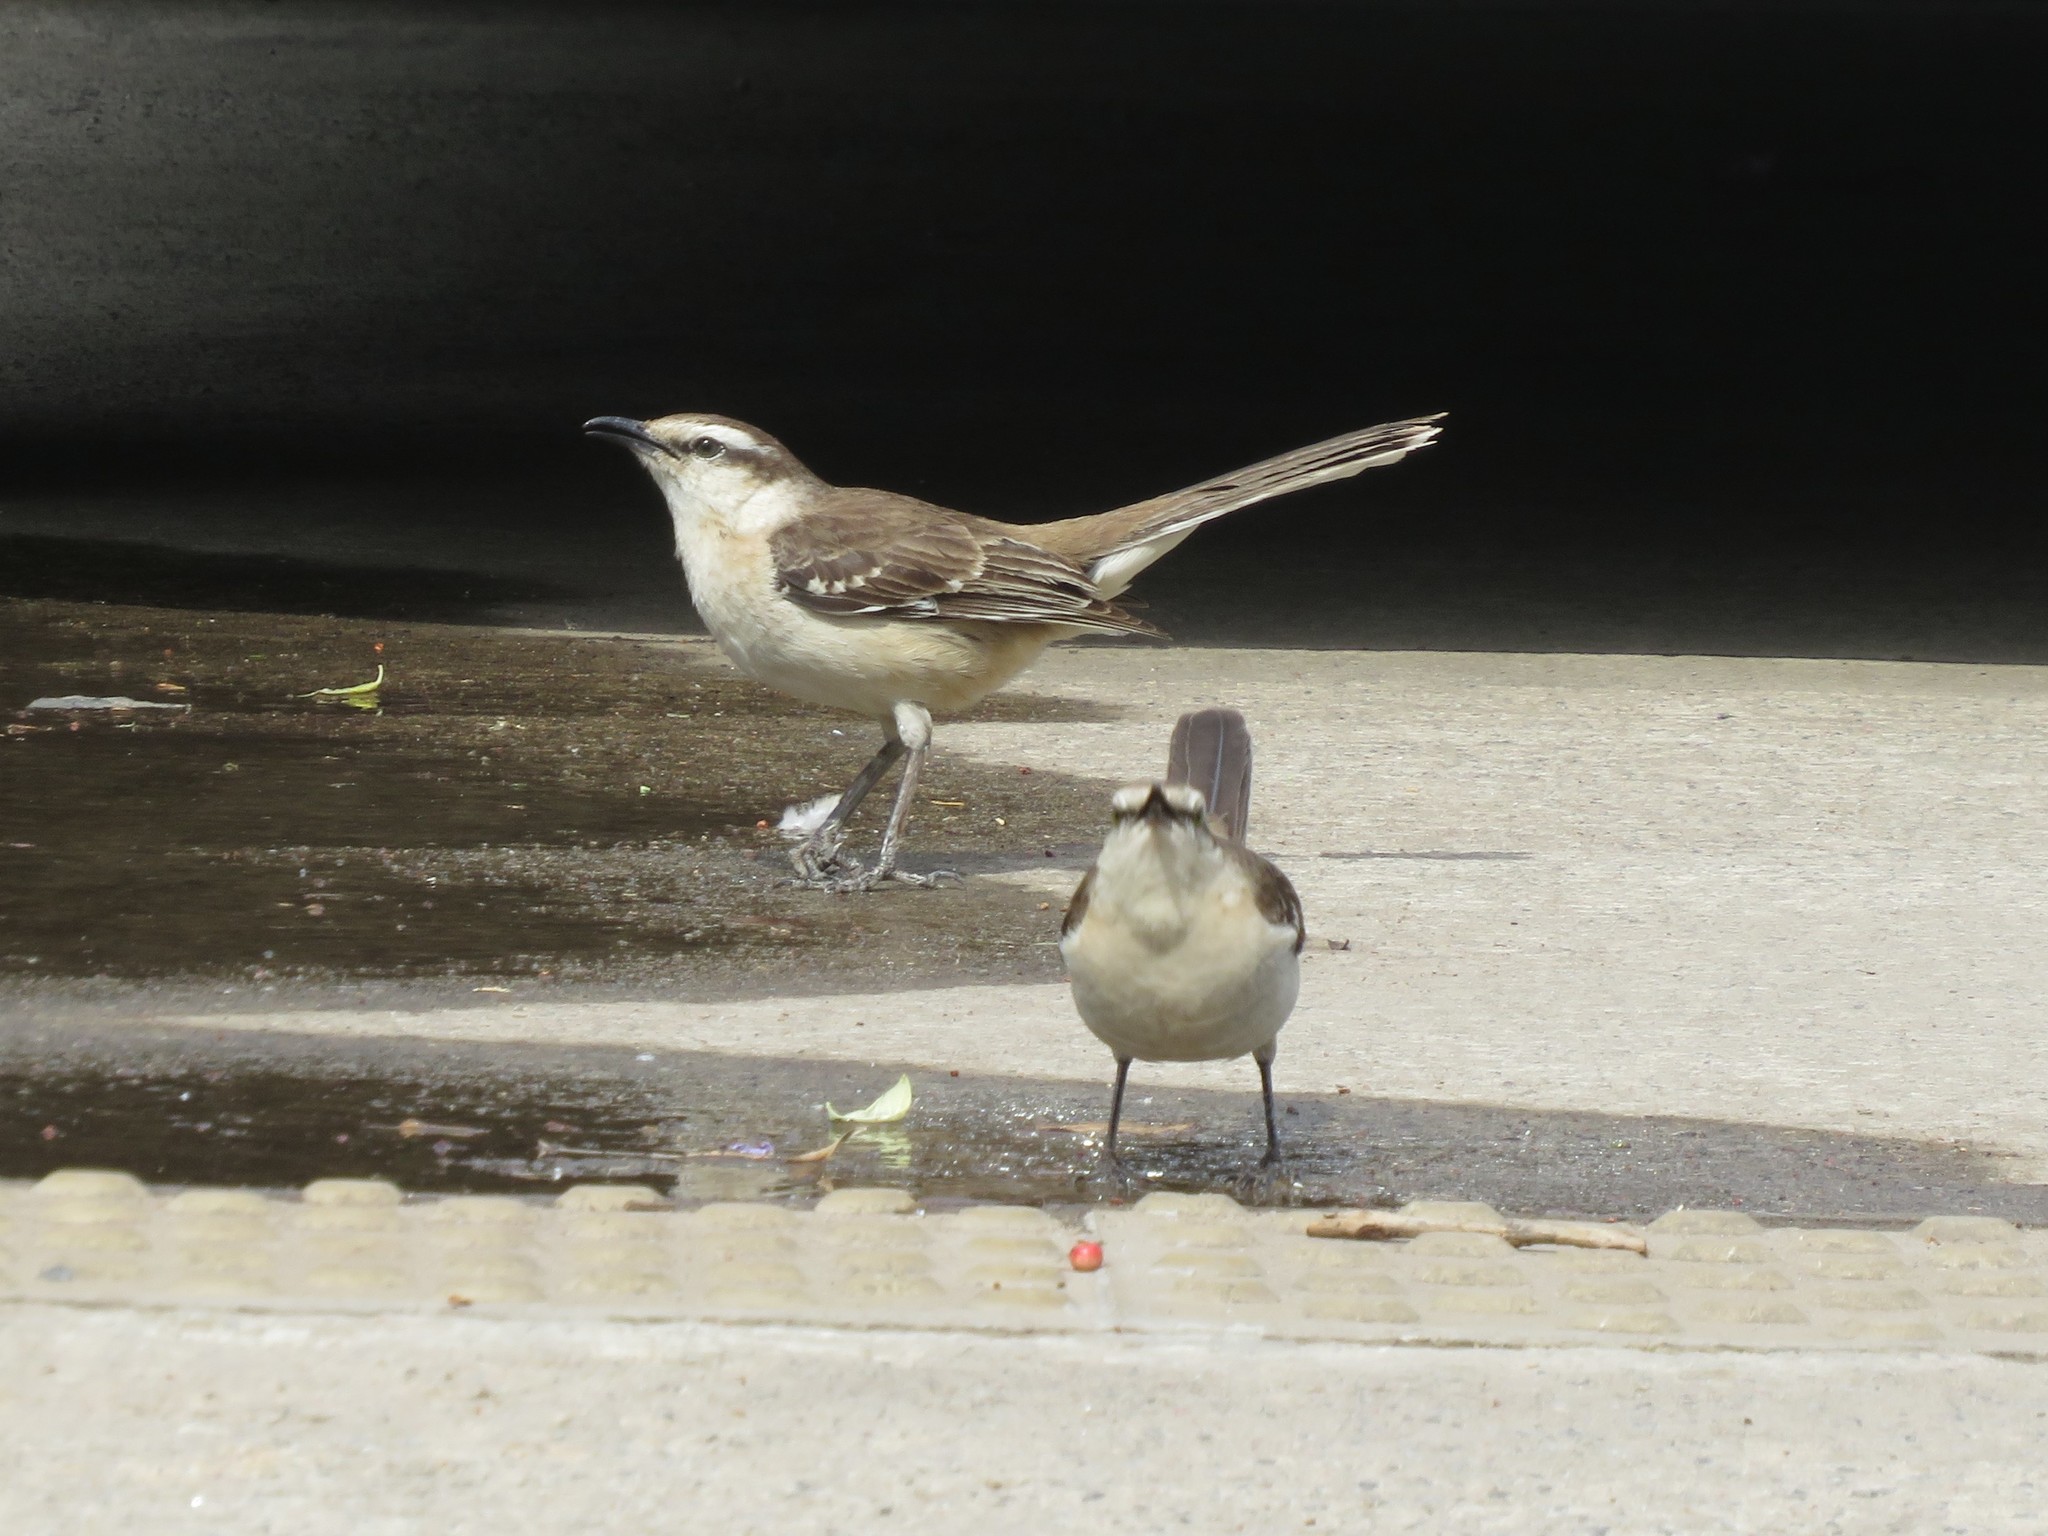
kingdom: Animalia
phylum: Chordata
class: Aves
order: Passeriformes
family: Mimidae
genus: Mimus
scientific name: Mimus saturninus
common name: Chalk-browed mockingbird
